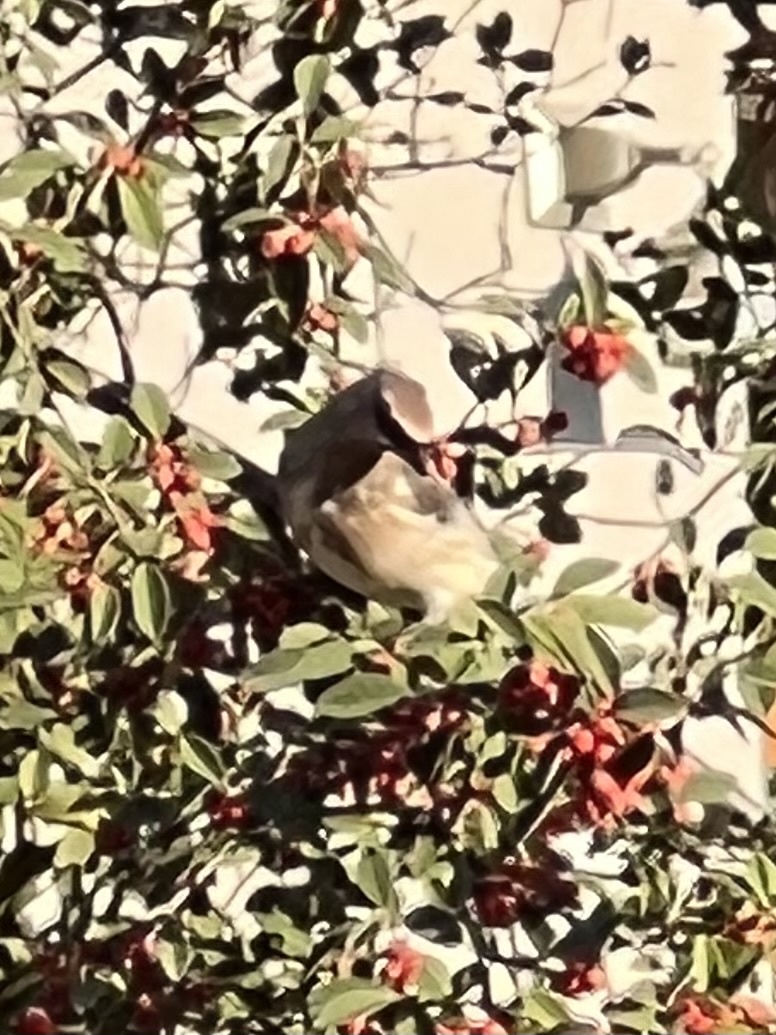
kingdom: Animalia
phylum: Chordata
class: Aves
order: Passeriformes
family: Bombycillidae
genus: Bombycilla
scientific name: Bombycilla cedrorum
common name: Cedar waxwing
